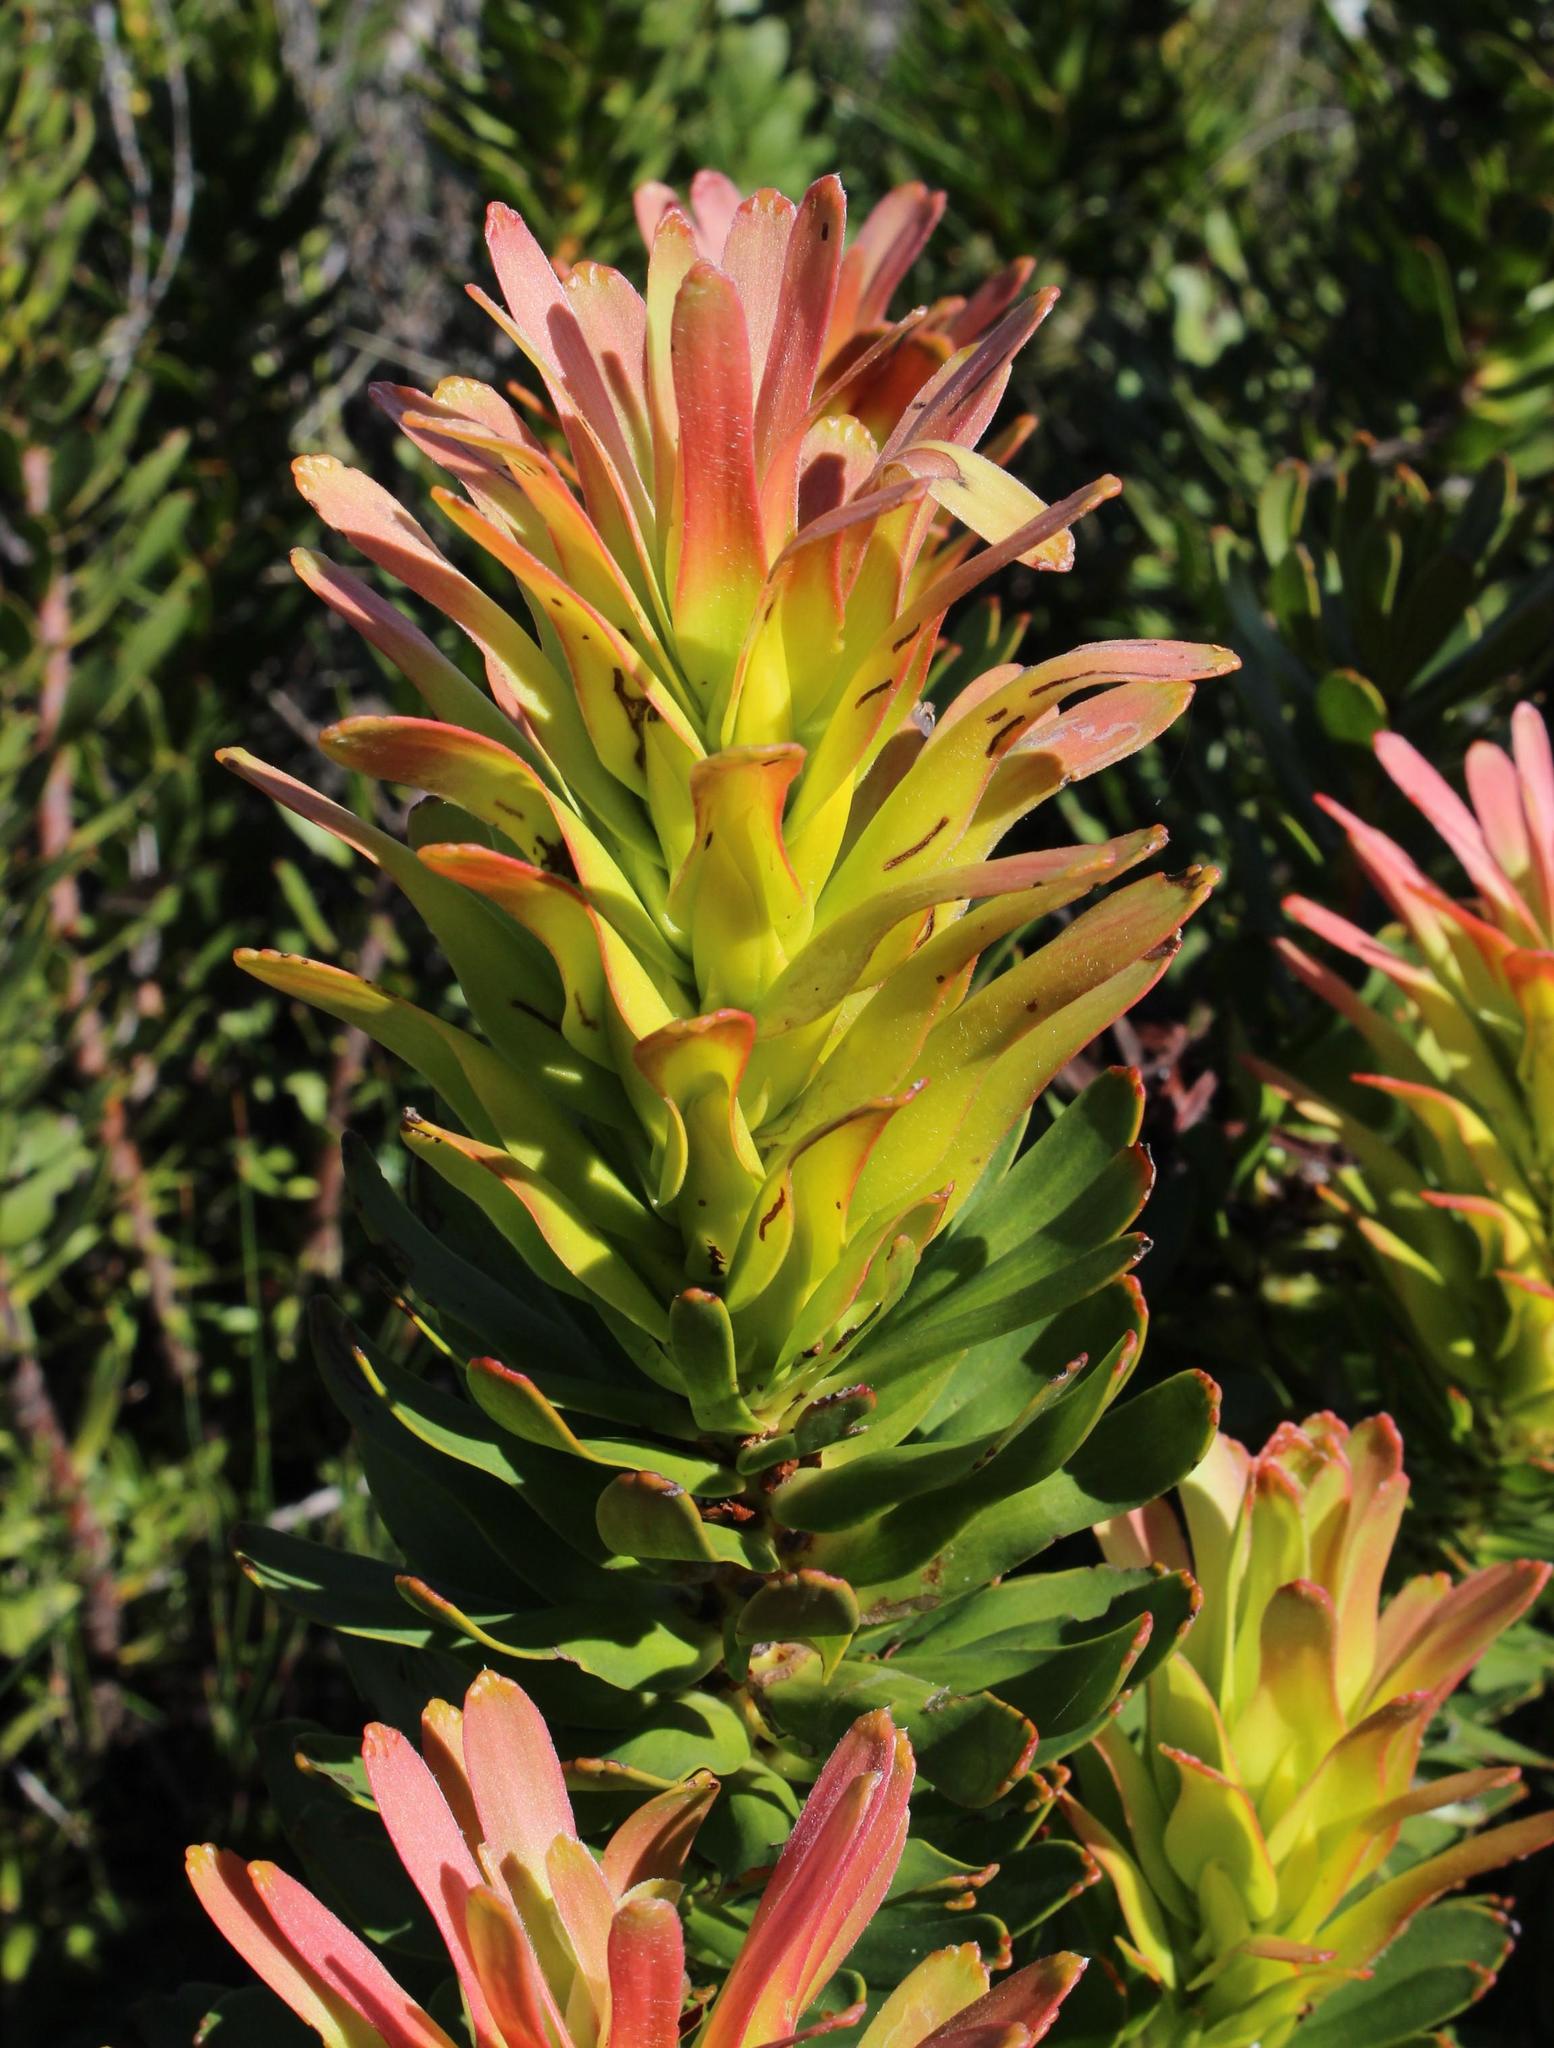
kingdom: Plantae
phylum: Tracheophyta
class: Magnoliopsida
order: Proteales
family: Proteaceae
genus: Mimetes
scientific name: Mimetes cucullatus
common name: Common pagoda
